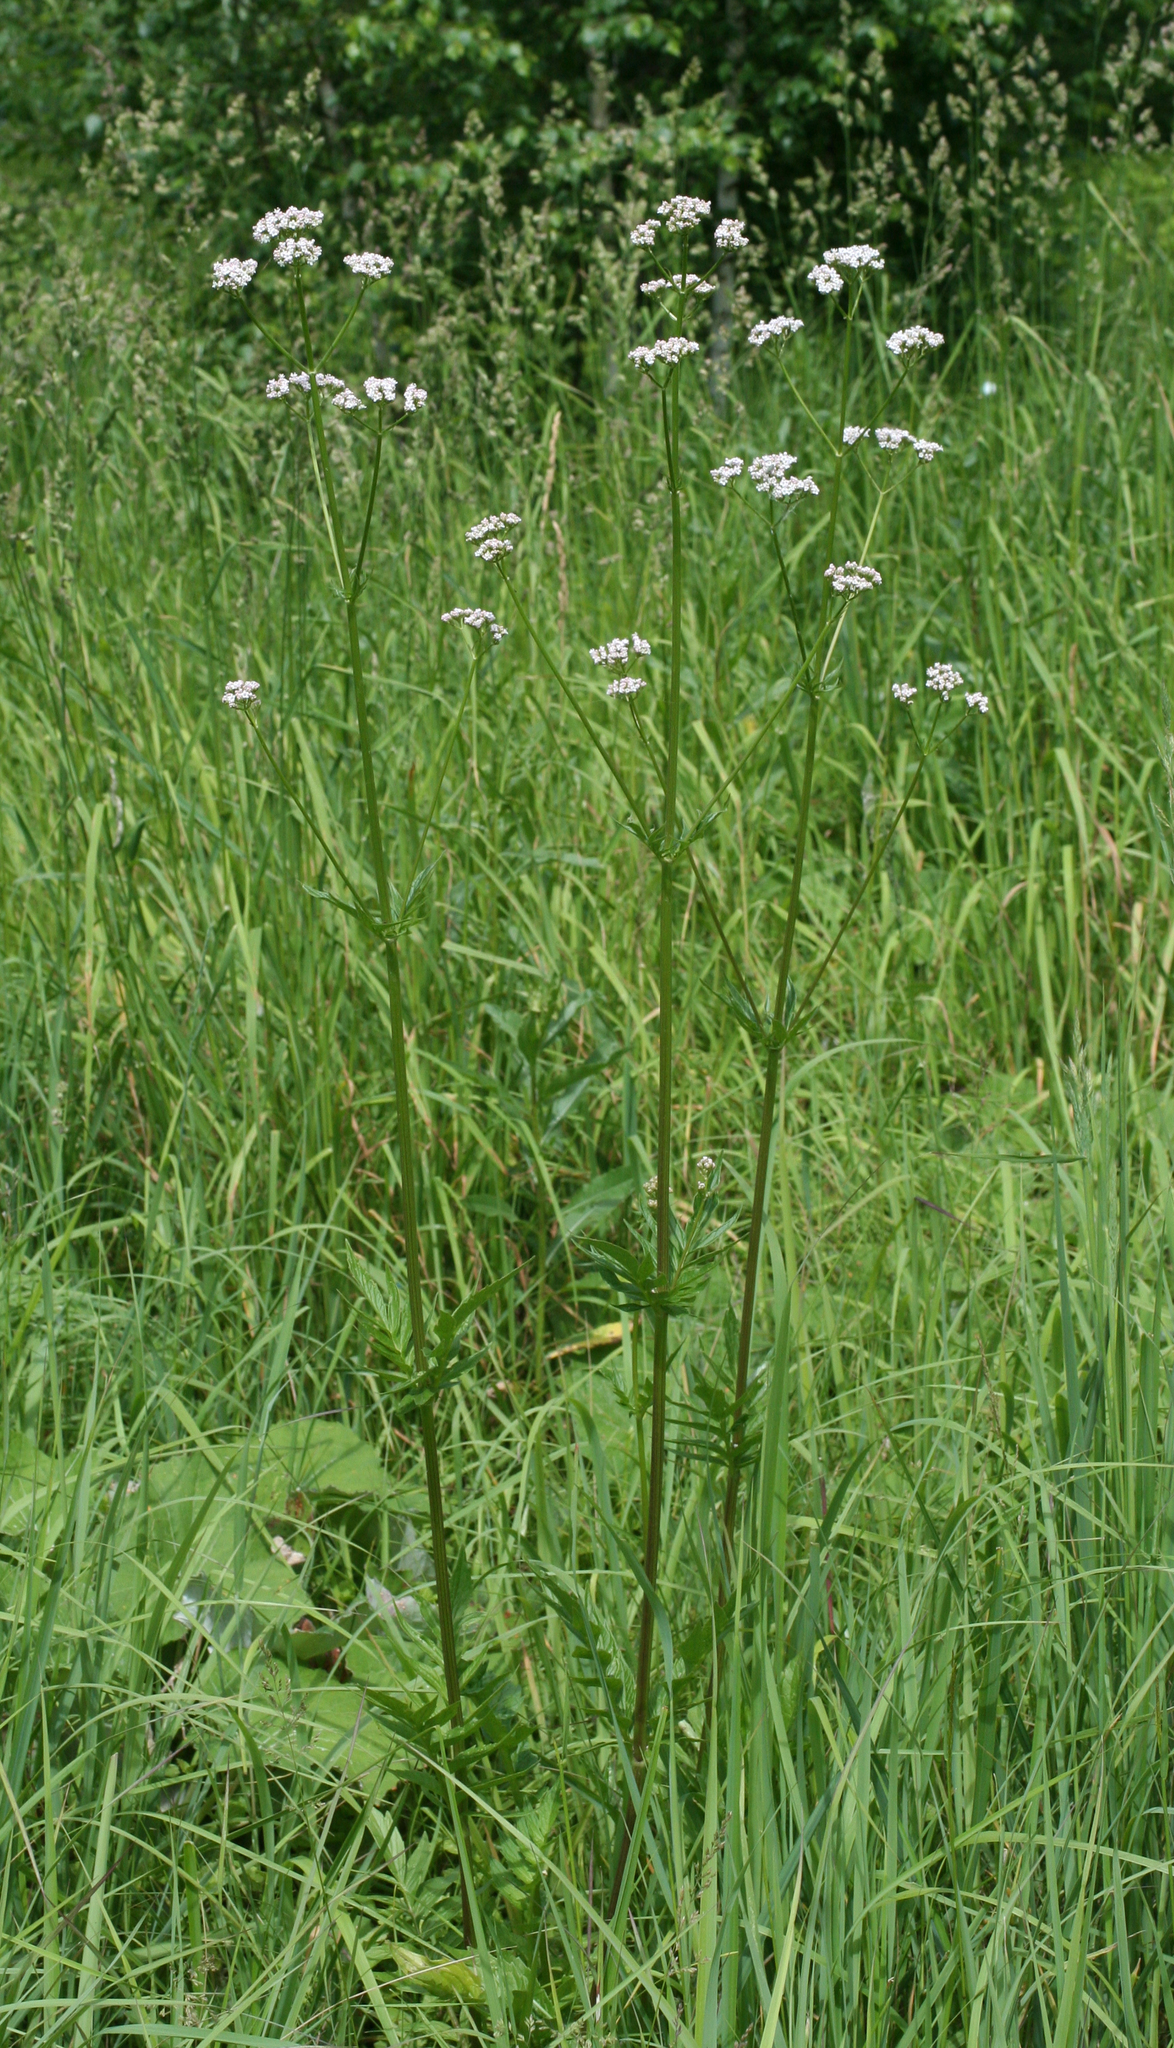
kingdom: Plantae
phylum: Tracheophyta
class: Magnoliopsida
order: Dipsacales
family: Caprifoliaceae
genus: Valeriana
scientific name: Valeriana officinalis
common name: Common valerian
